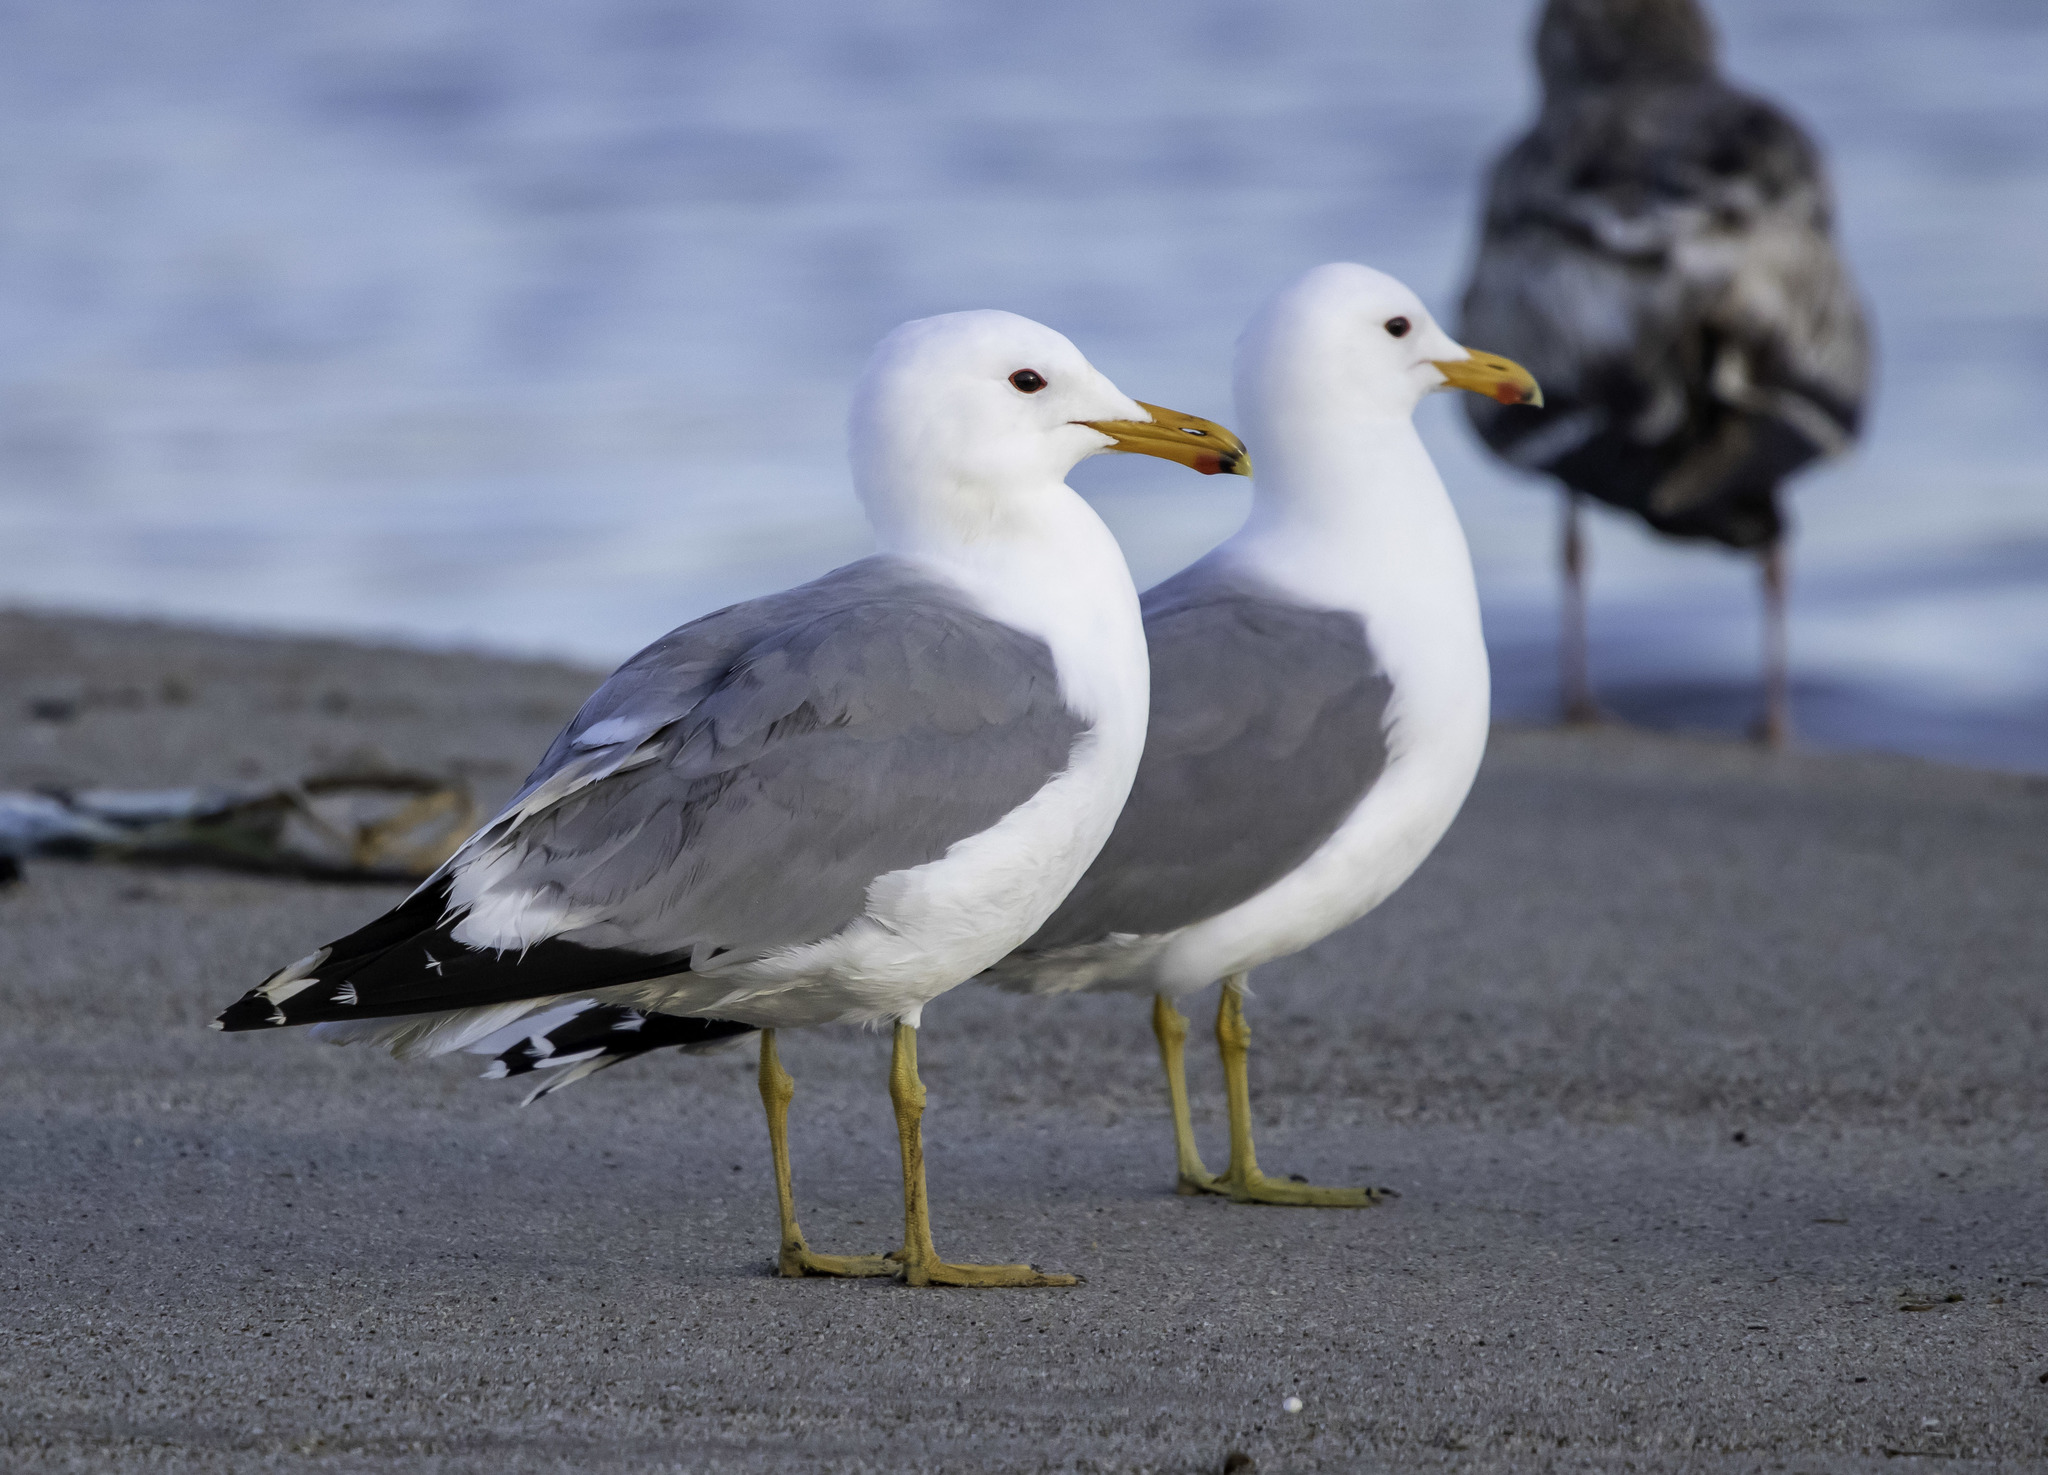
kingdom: Animalia
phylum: Chordata
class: Aves
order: Charadriiformes
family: Laridae
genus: Larus
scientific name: Larus californicus
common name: California gull
